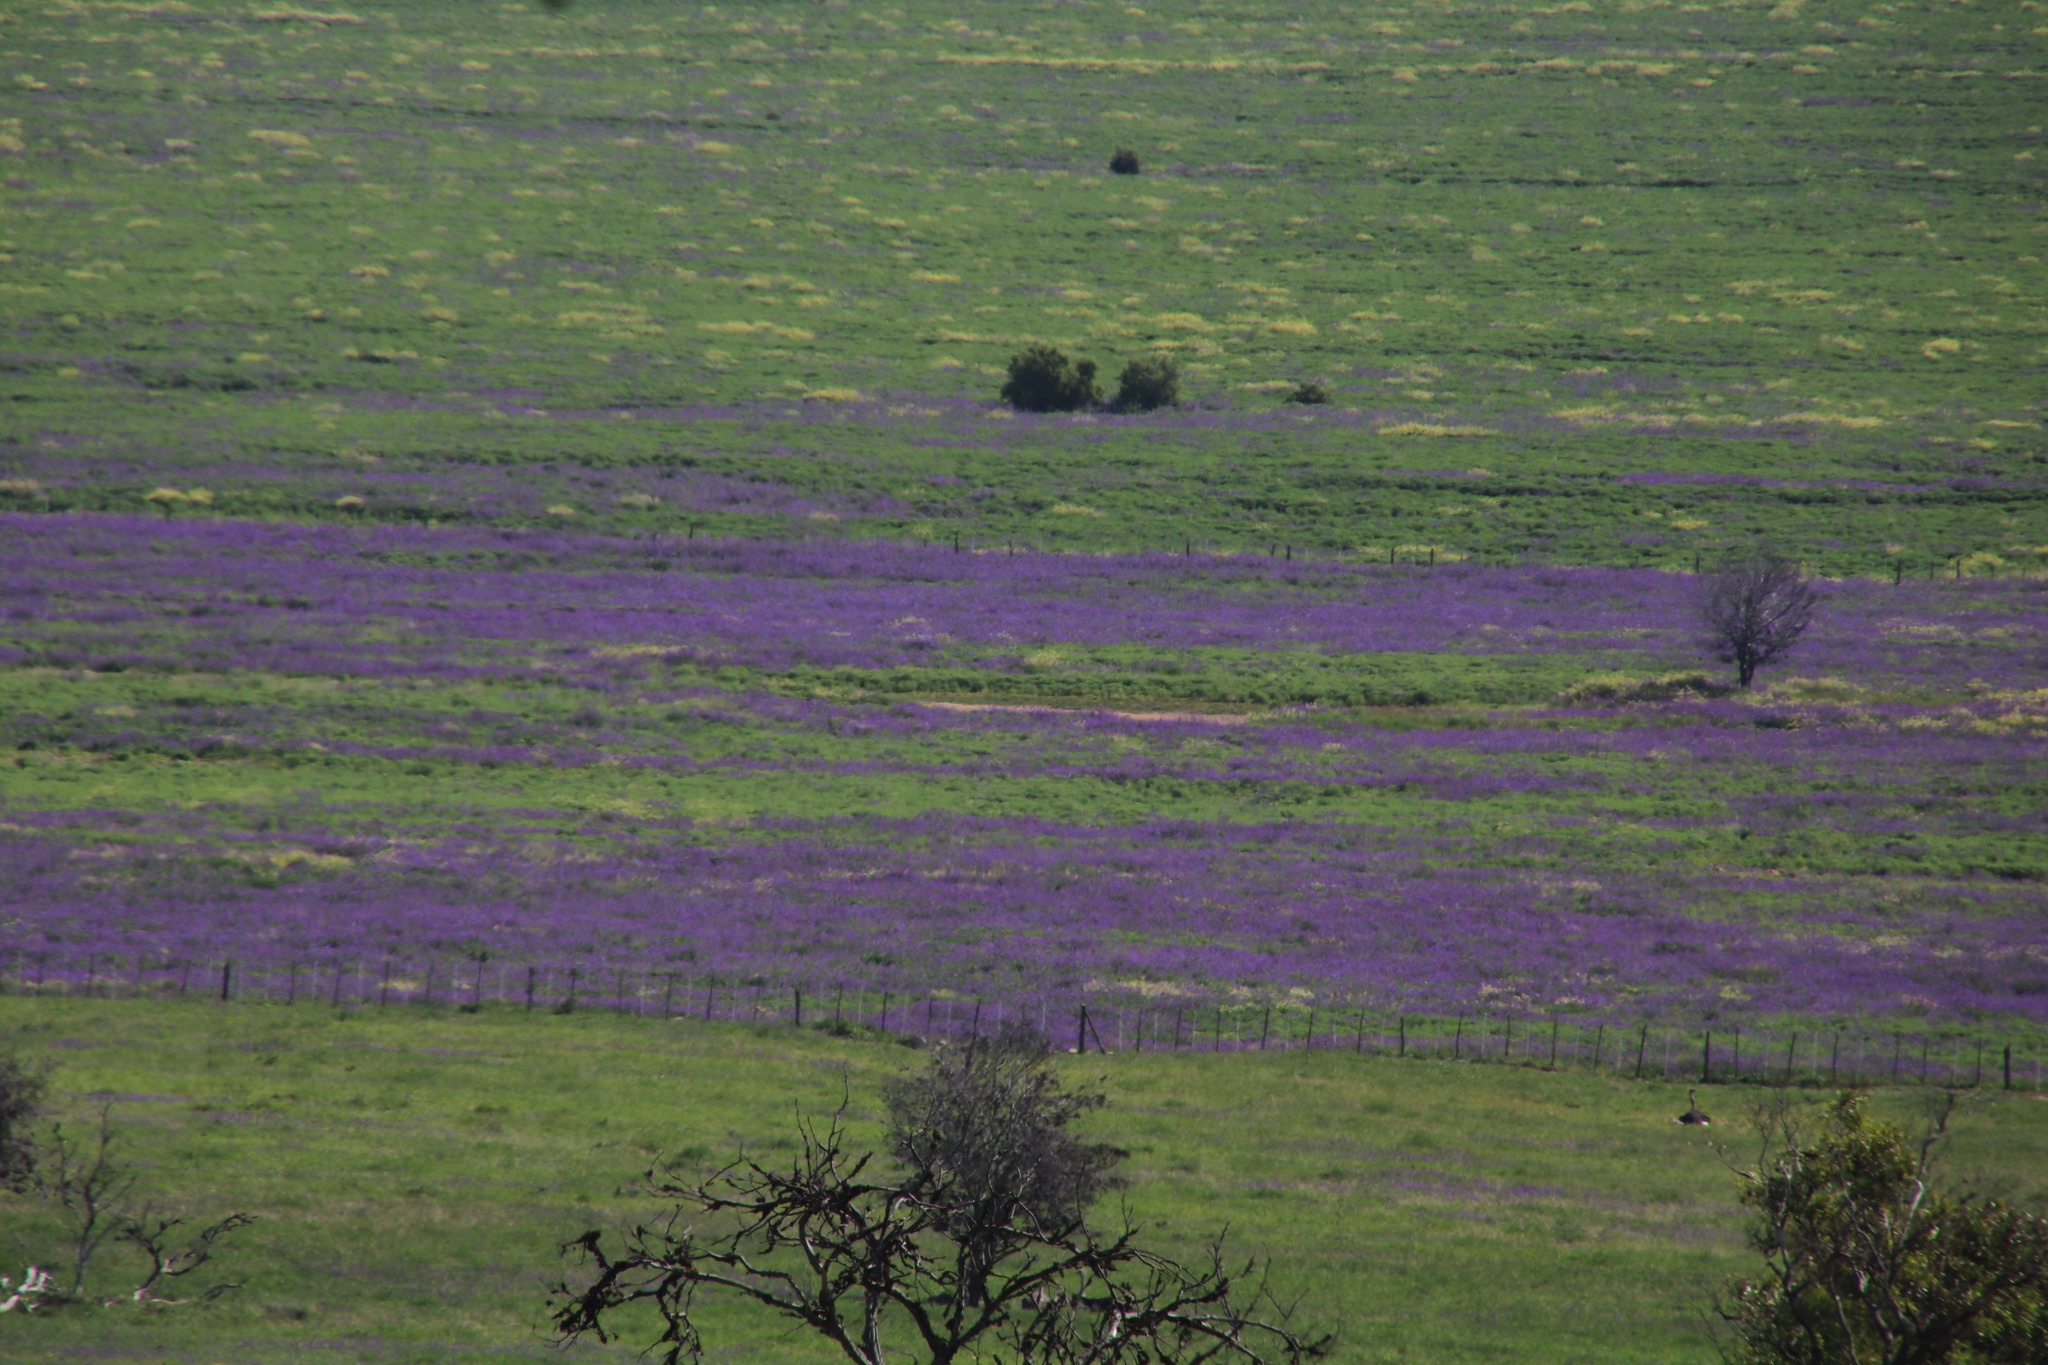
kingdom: Plantae
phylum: Tracheophyta
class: Magnoliopsida
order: Boraginales
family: Boraginaceae
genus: Echium
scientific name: Echium plantagineum
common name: Purple viper's-bugloss
